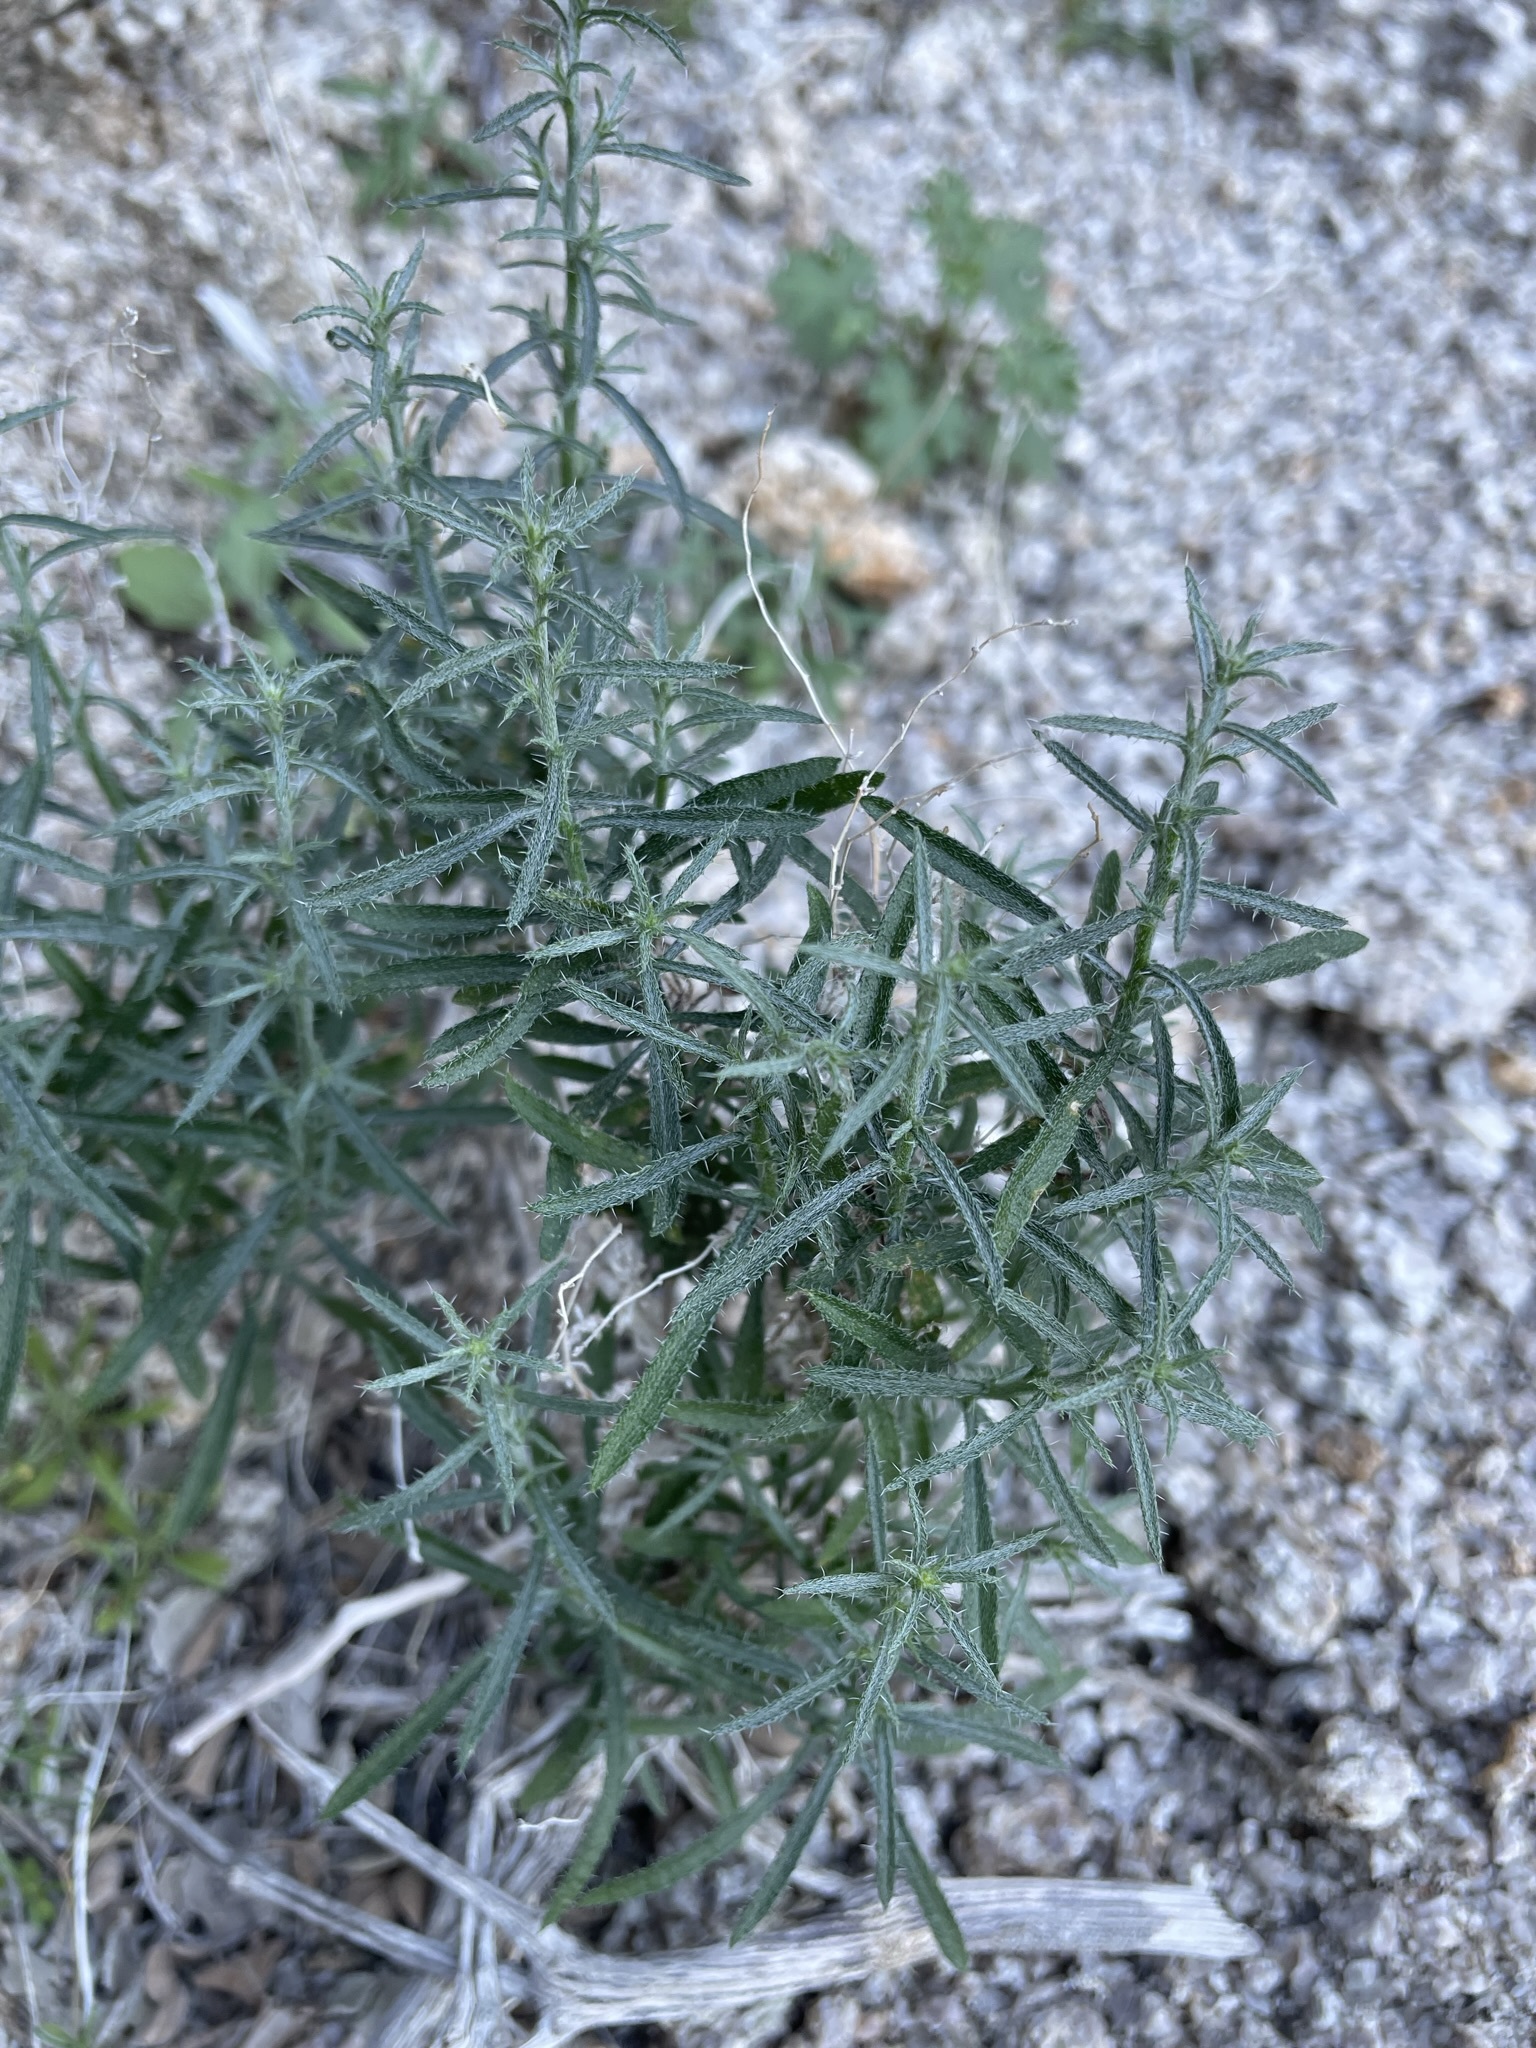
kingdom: Plantae
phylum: Tracheophyta
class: Magnoliopsida
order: Boraginales
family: Boraginaceae
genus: Johnstonella
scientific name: Johnstonella racemosa
